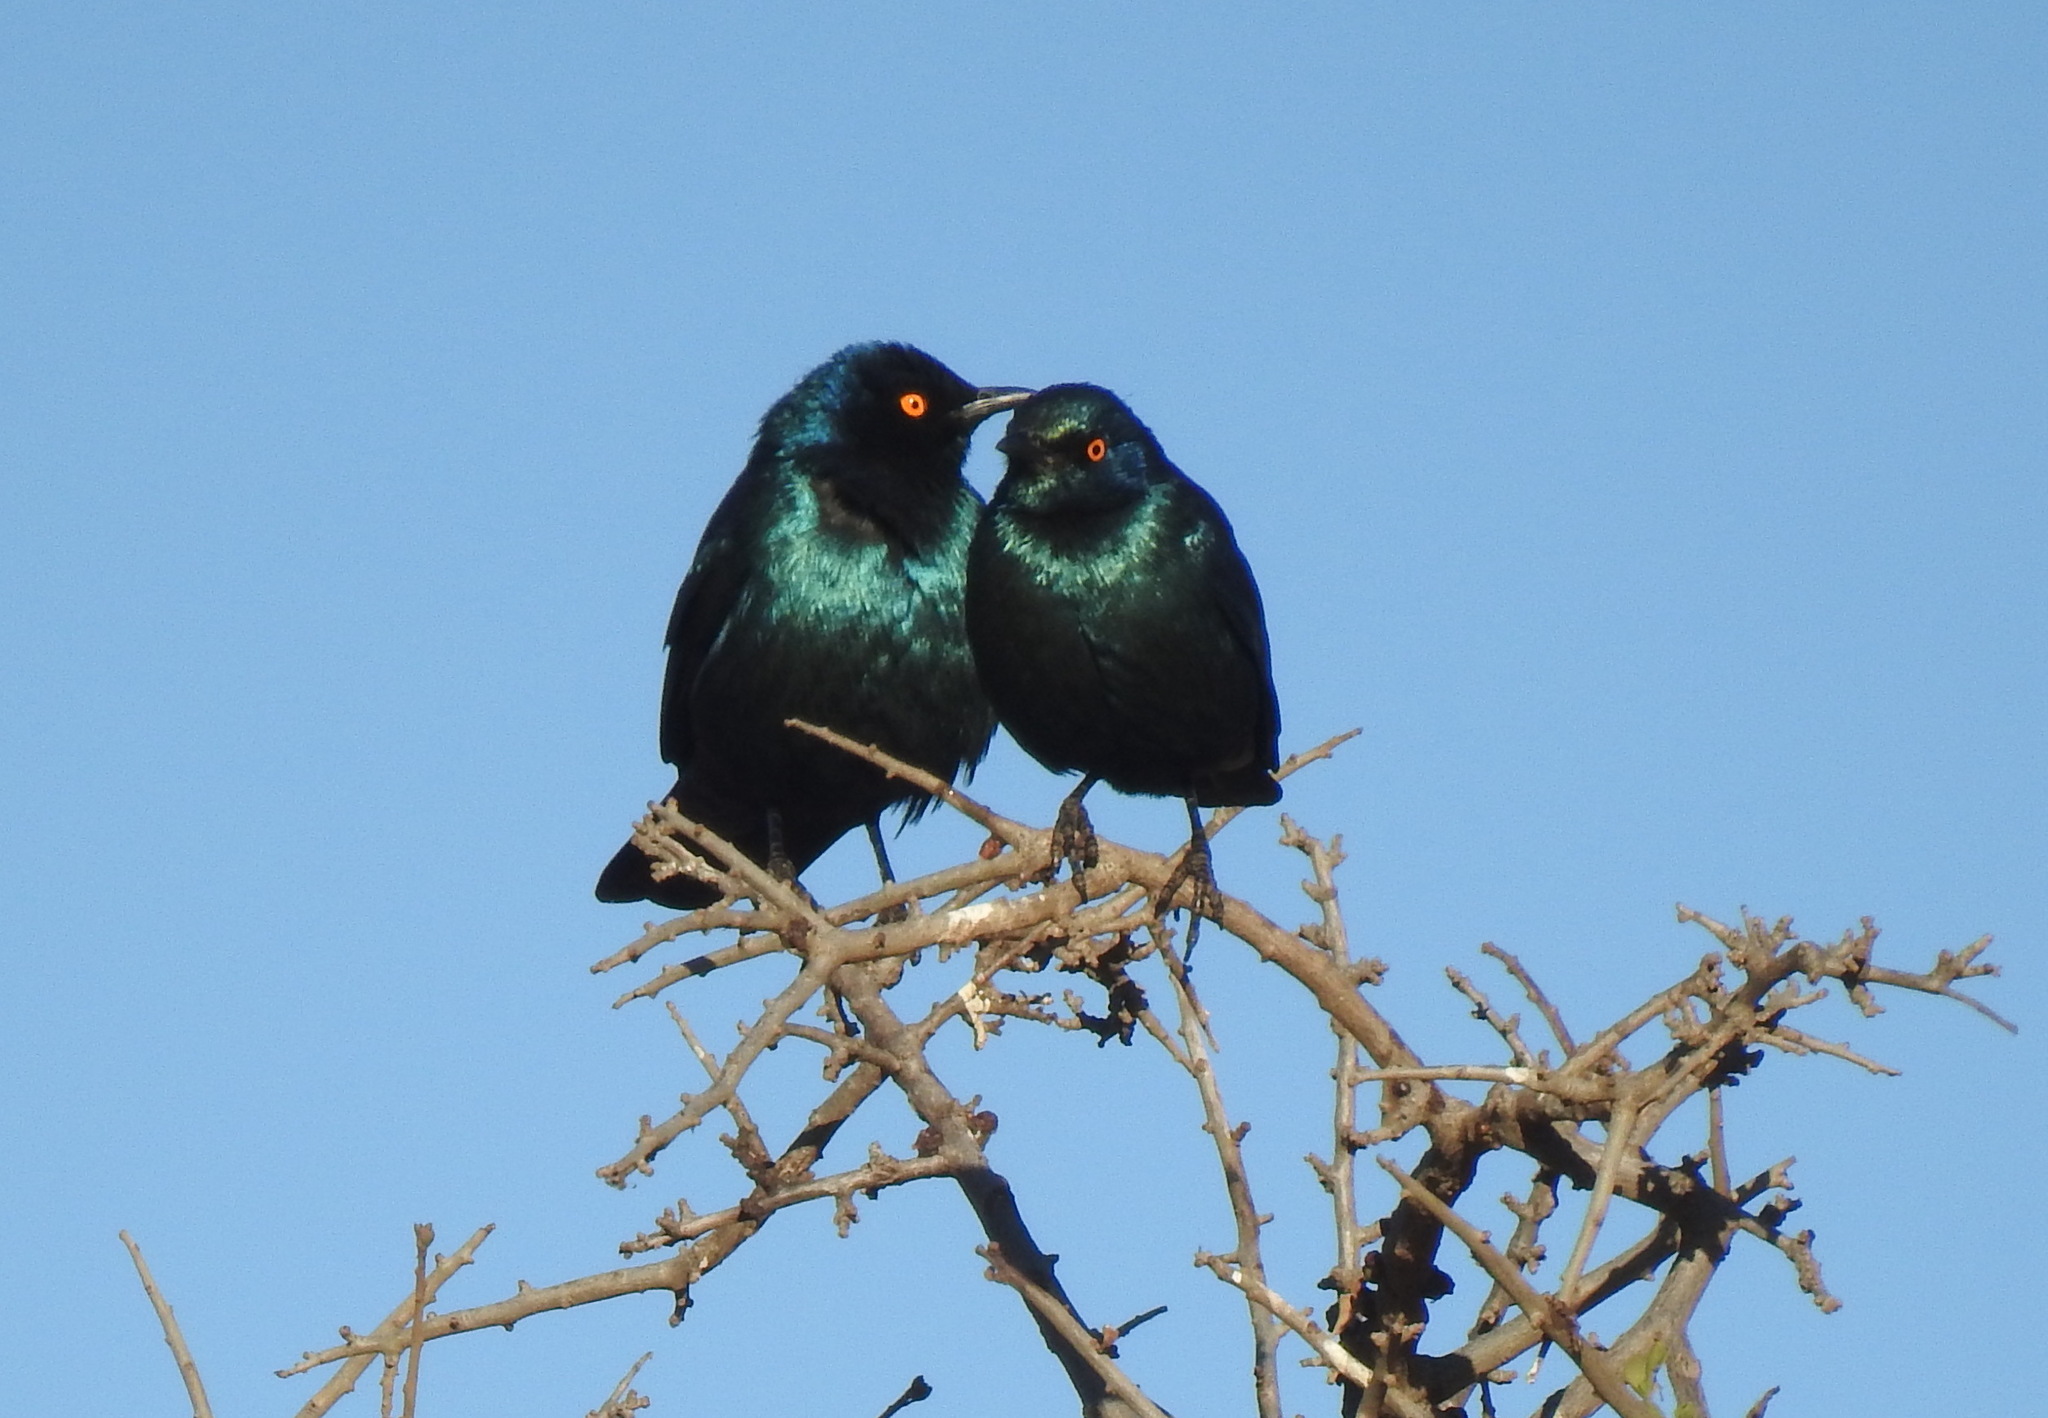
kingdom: Animalia
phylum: Chordata
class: Aves
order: Passeriformes
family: Sturnidae
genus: Lamprotornis
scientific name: Lamprotornis nitens
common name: Cape starling
